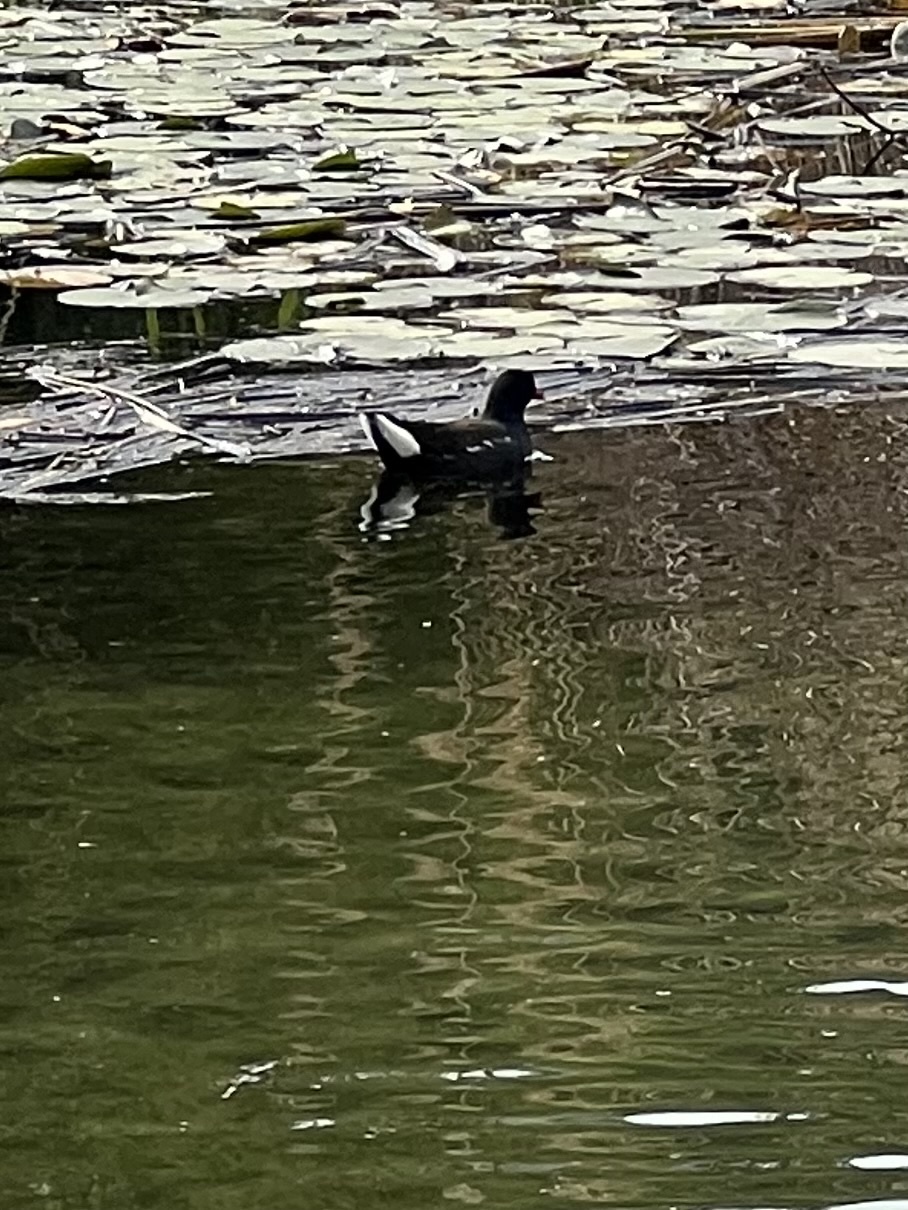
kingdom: Animalia
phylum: Chordata
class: Aves
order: Gruiformes
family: Rallidae
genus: Gallinula
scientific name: Gallinula chloropus
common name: Common moorhen
